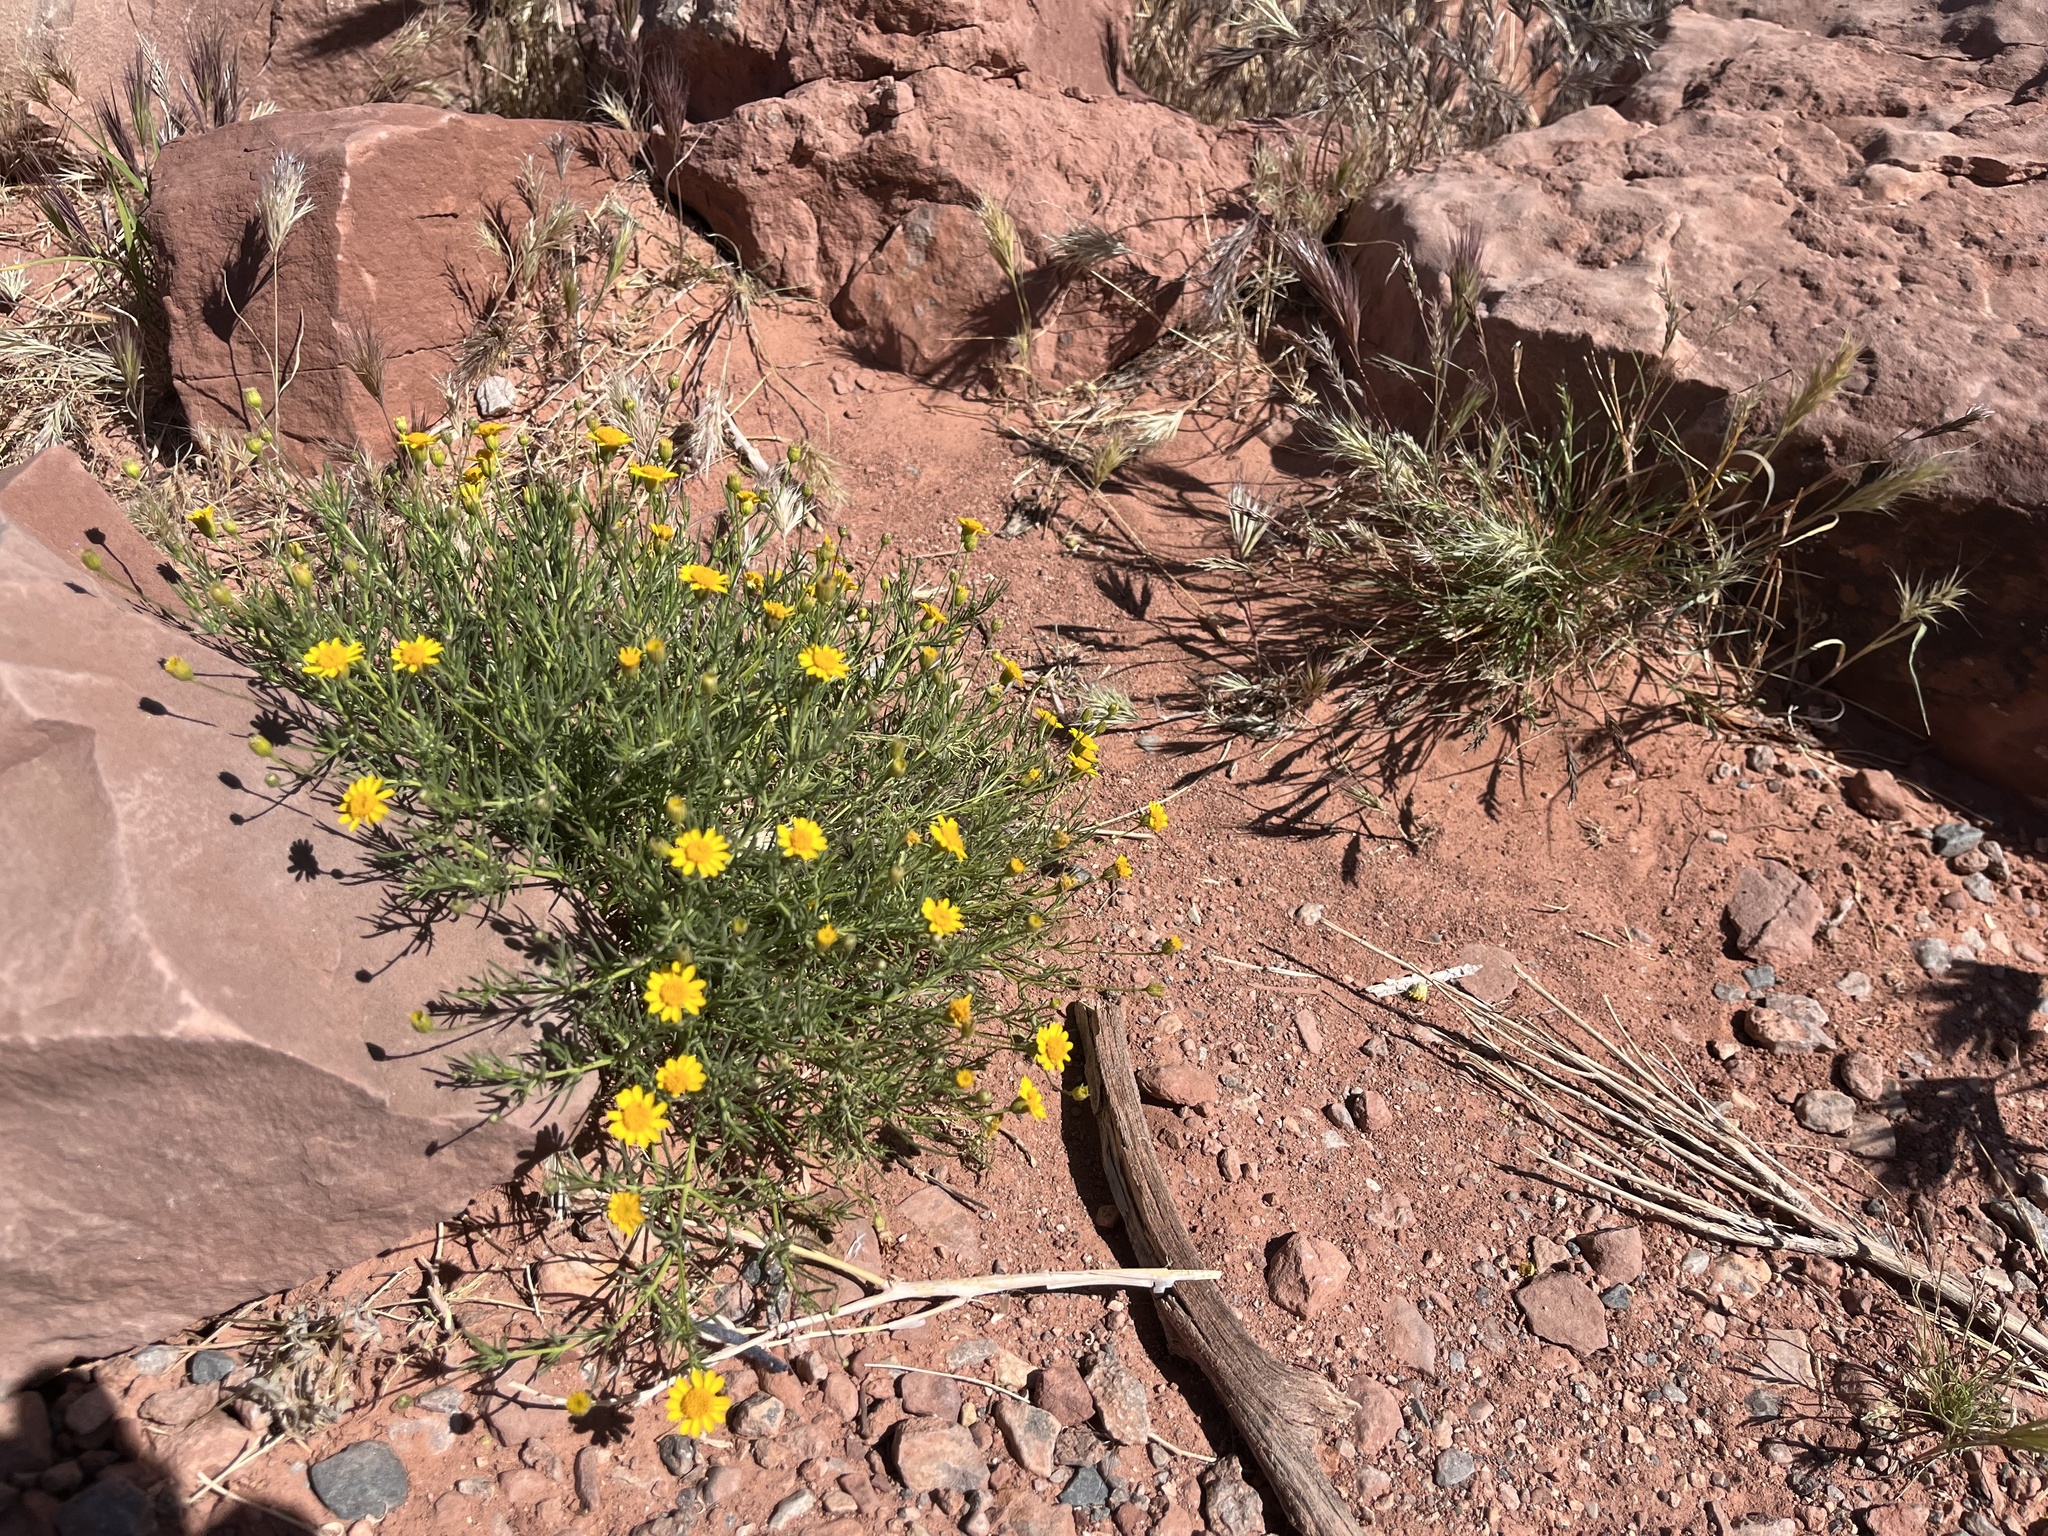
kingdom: Plantae
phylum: Tracheophyta
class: Magnoliopsida
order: Asterales
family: Asteraceae
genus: Thymophylla
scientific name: Thymophylla pentachaeta
